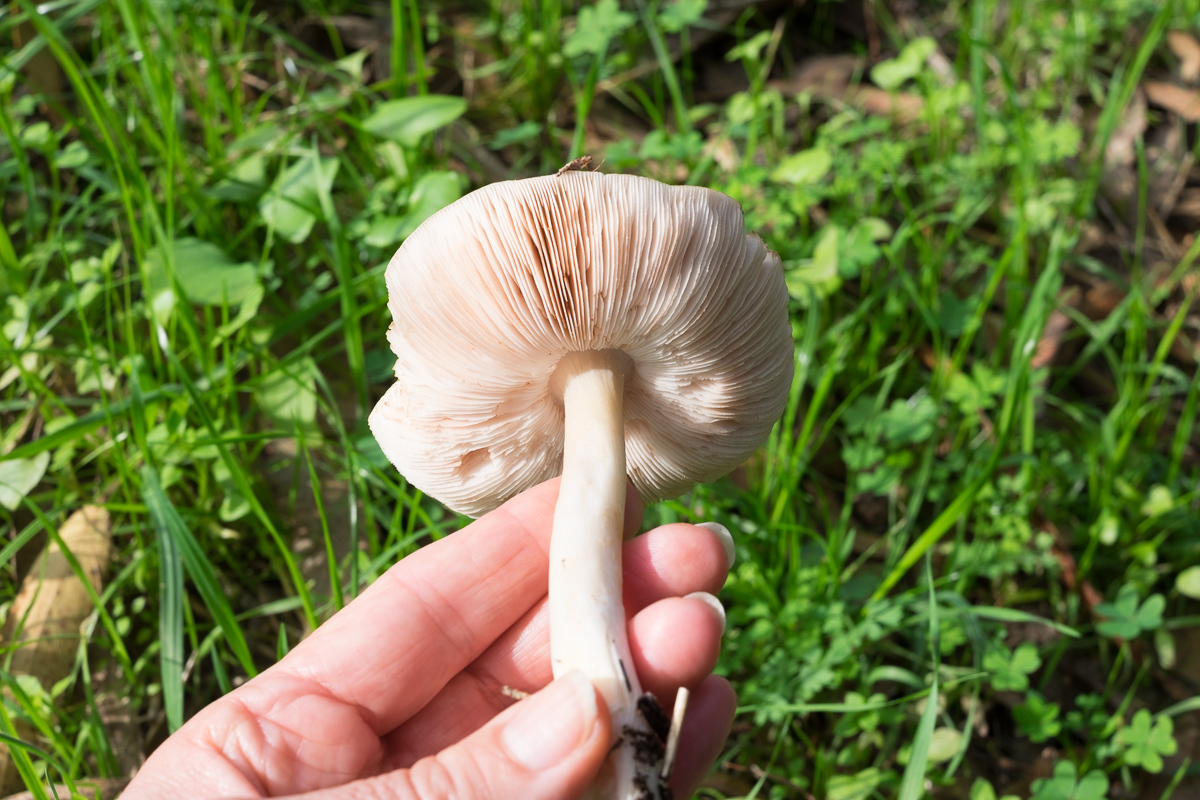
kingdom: Fungi
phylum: Basidiomycota
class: Agaricomycetes
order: Agaricales
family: Pluteaceae
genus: Volvopluteus
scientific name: Volvopluteus gloiocephalus
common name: Stubble rosegill
